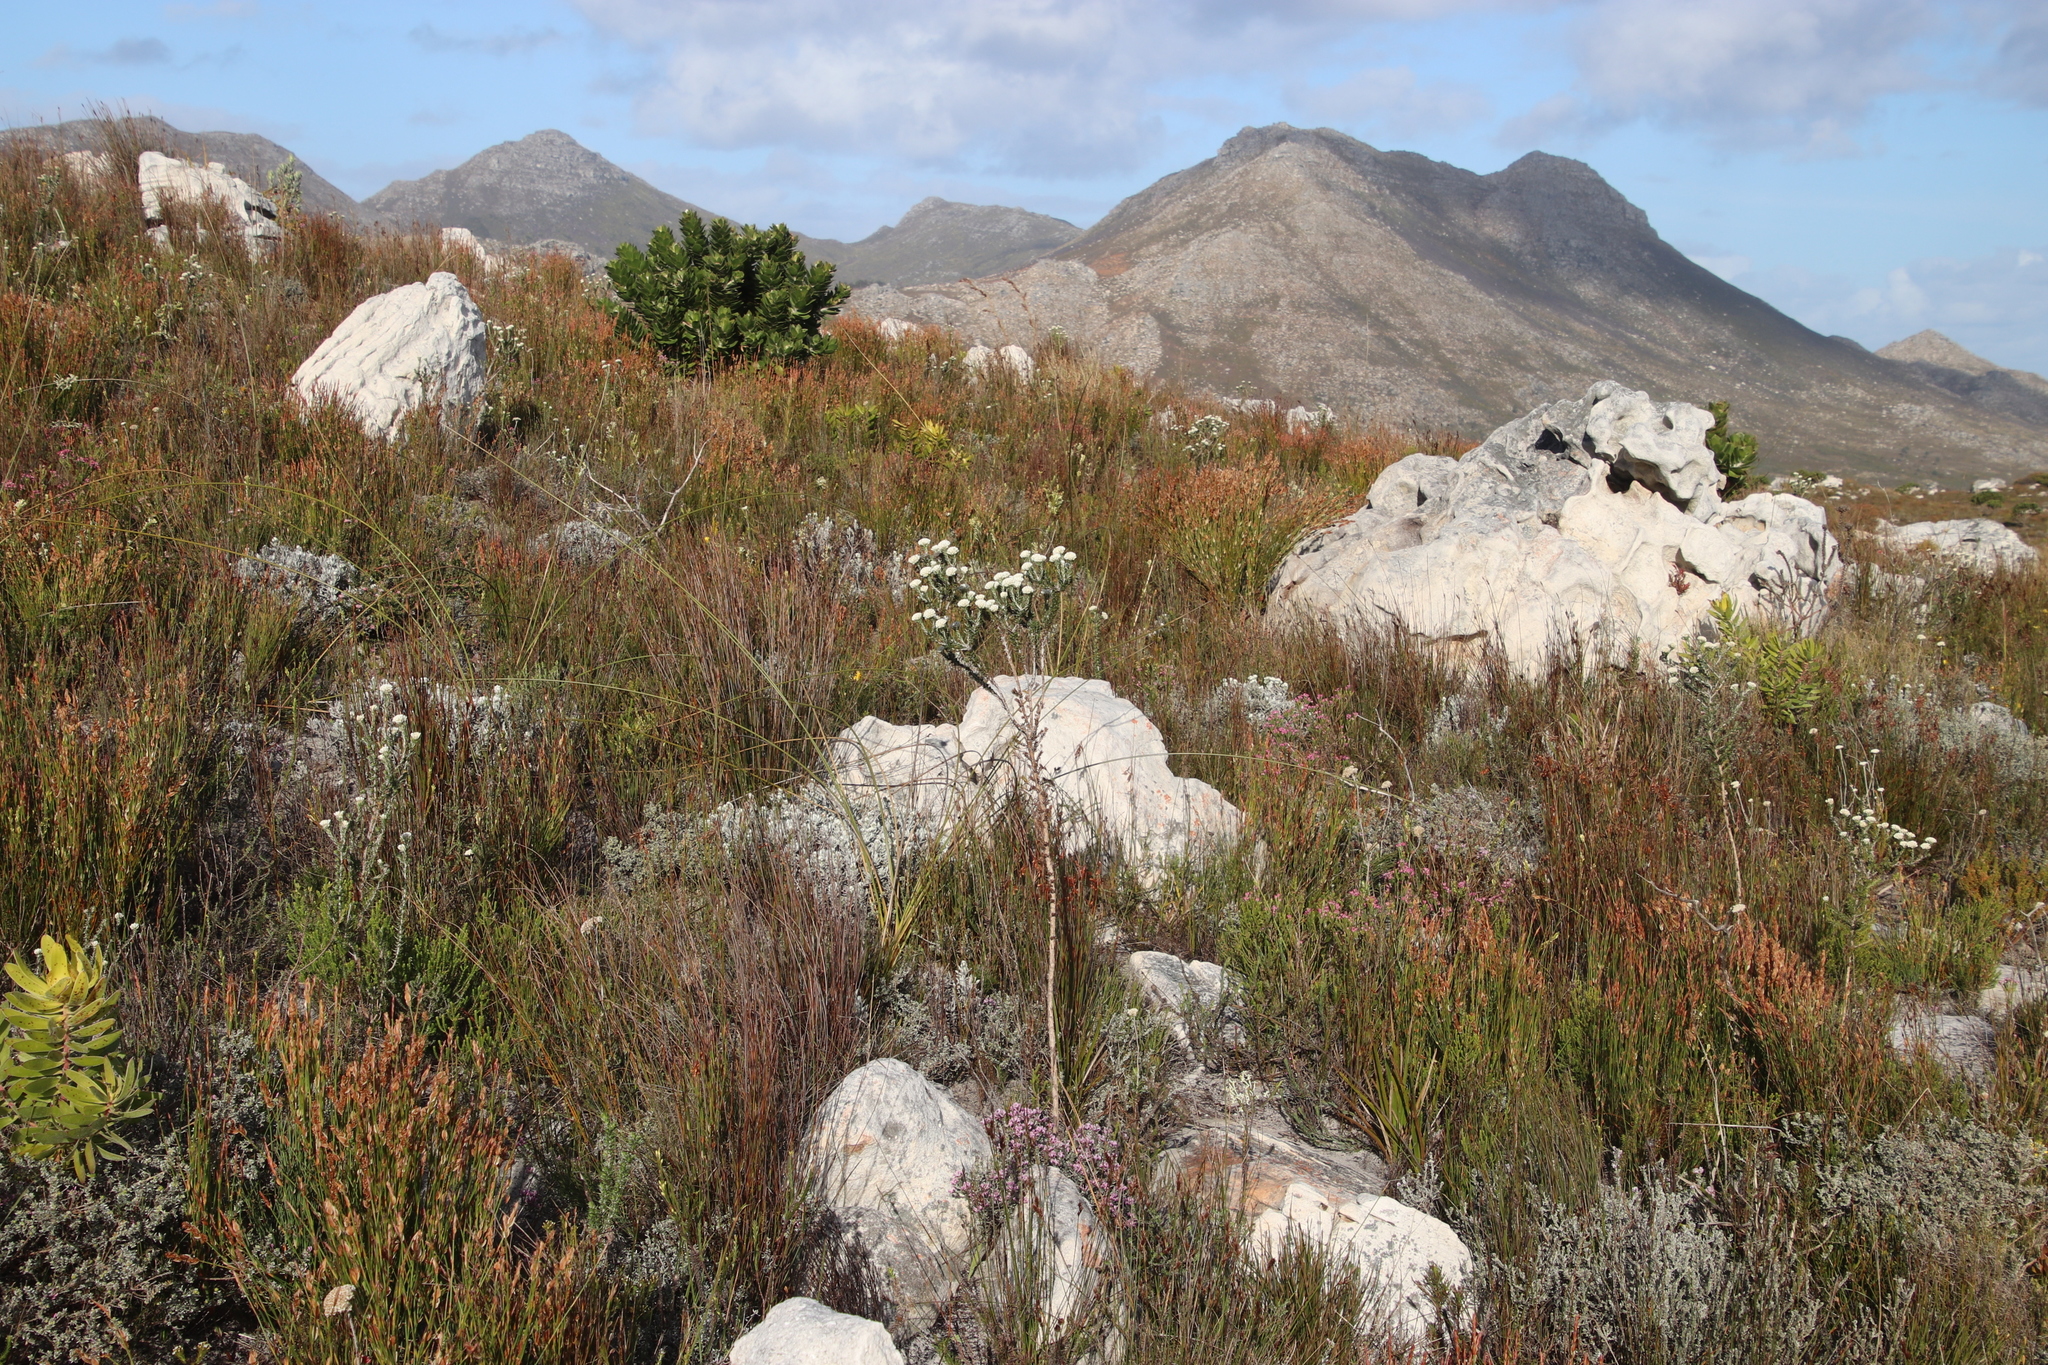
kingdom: Plantae
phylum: Tracheophyta
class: Magnoliopsida
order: Asterales
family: Asteraceae
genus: Metalasia
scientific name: Metalasia compacta
